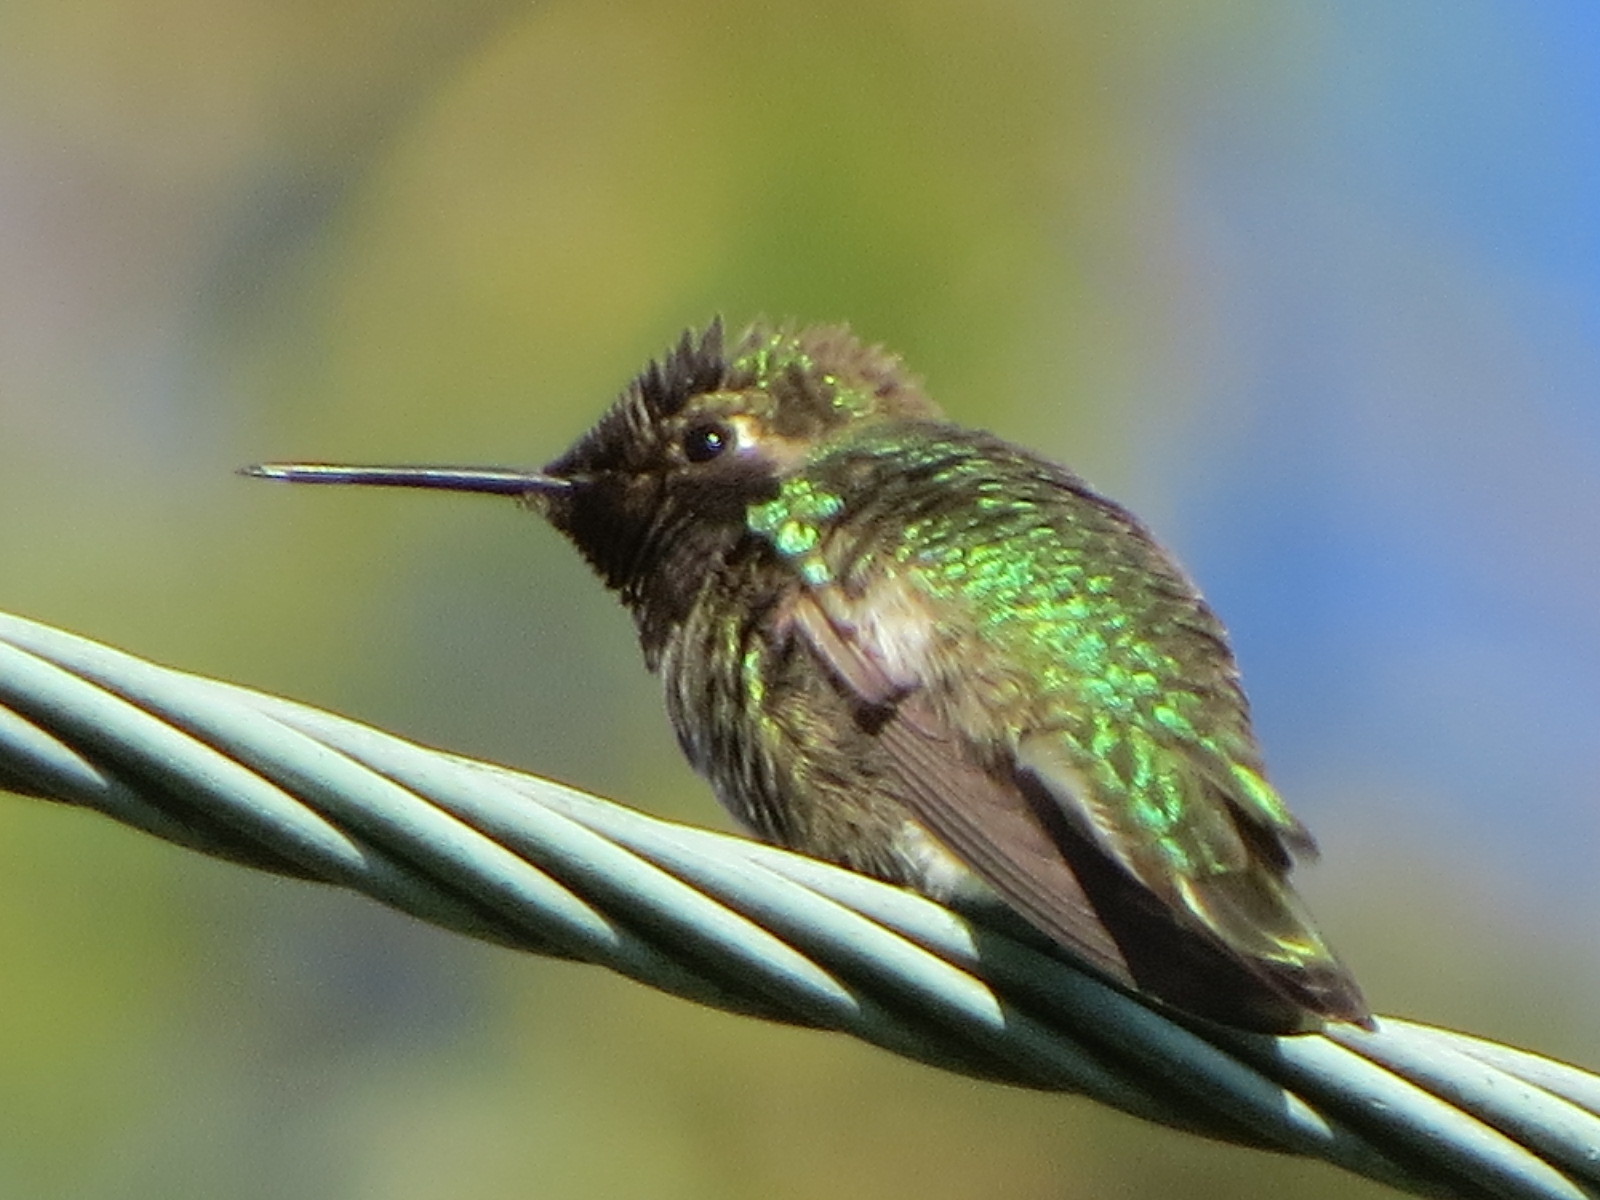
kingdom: Animalia
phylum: Chordata
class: Aves
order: Apodiformes
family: Trochilidae
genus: Calypte
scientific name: Calypte anna
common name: Anna's hummingbird
